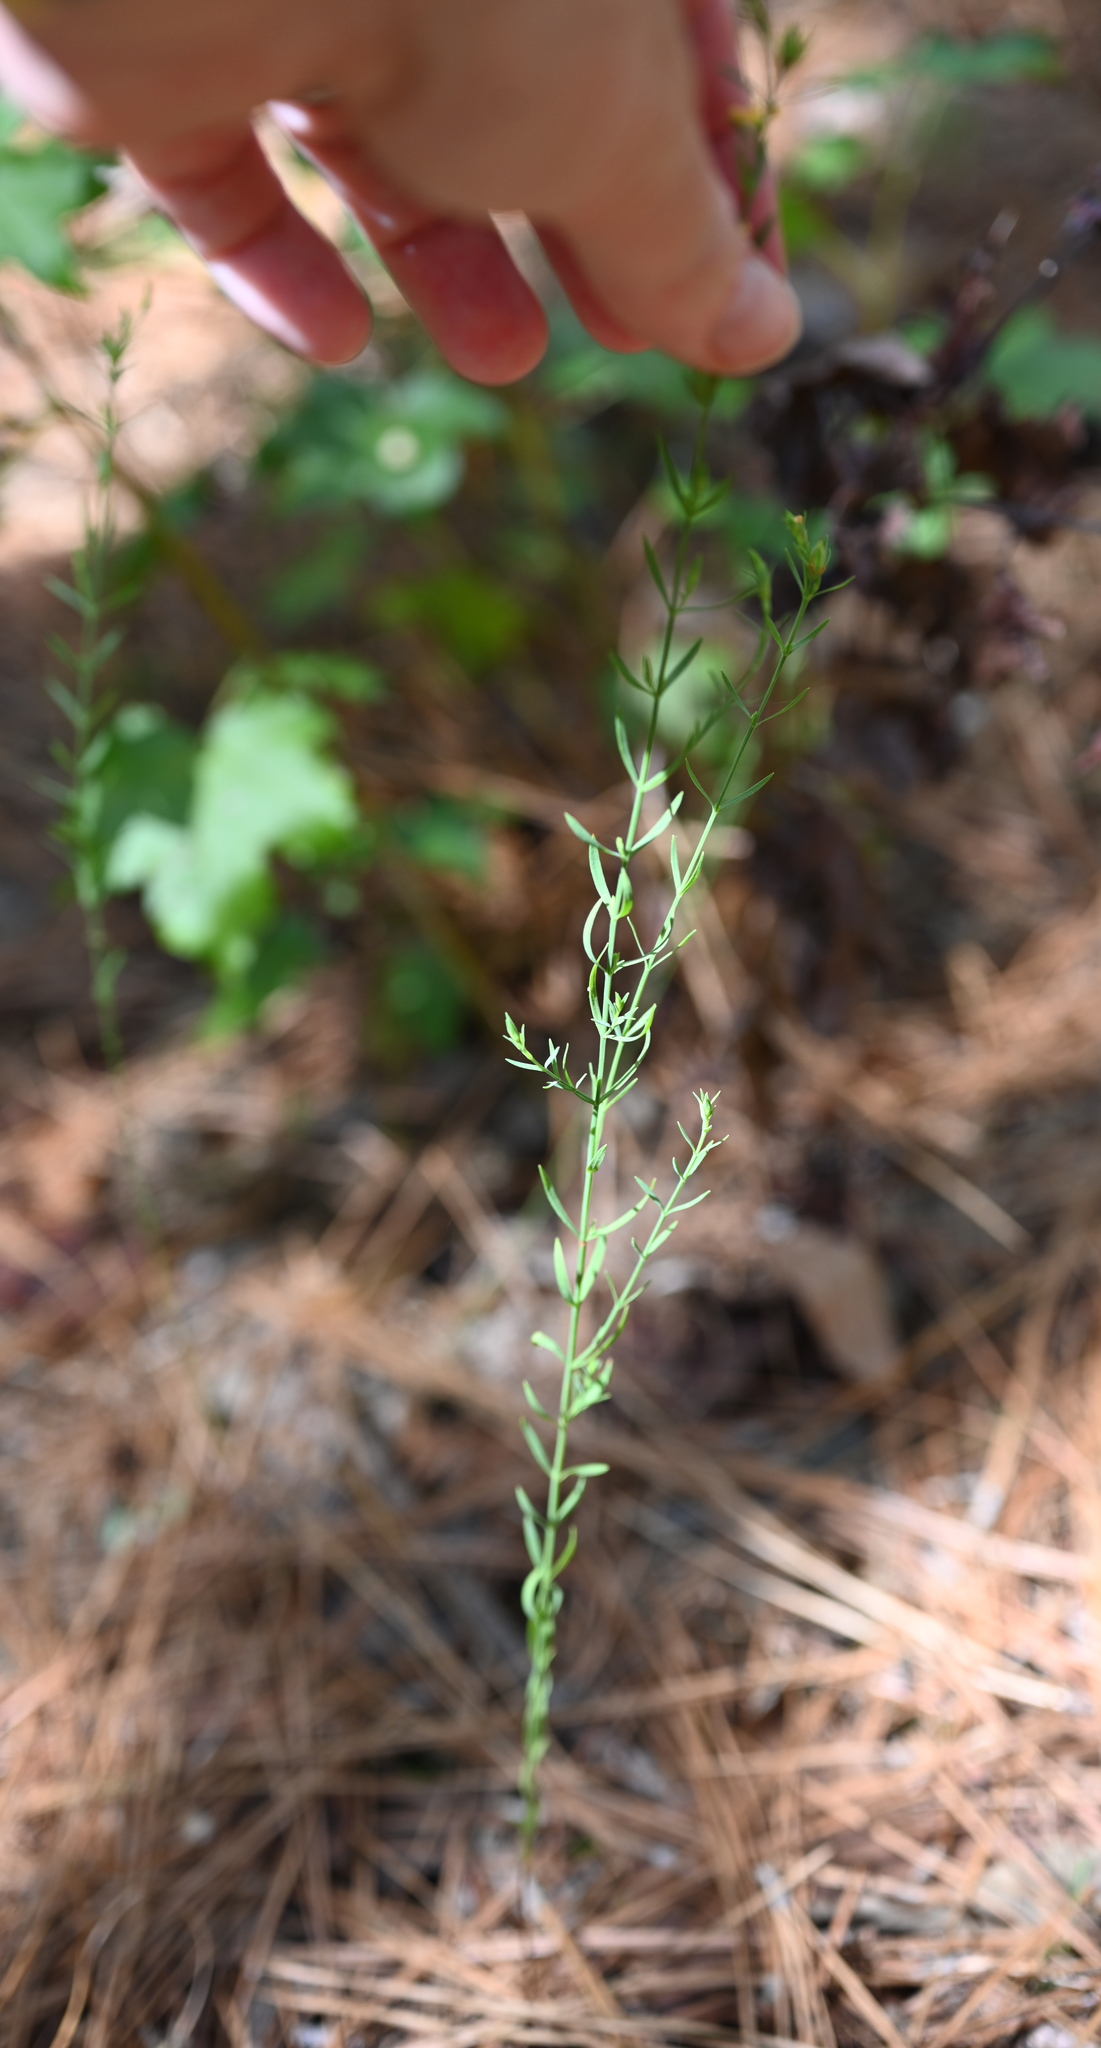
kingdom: Plantae
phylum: Tracheophyta
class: Magnoliopsida
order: Malpighiales
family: Hypericaceae
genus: Hypericum
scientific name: Hypericum drummondii
